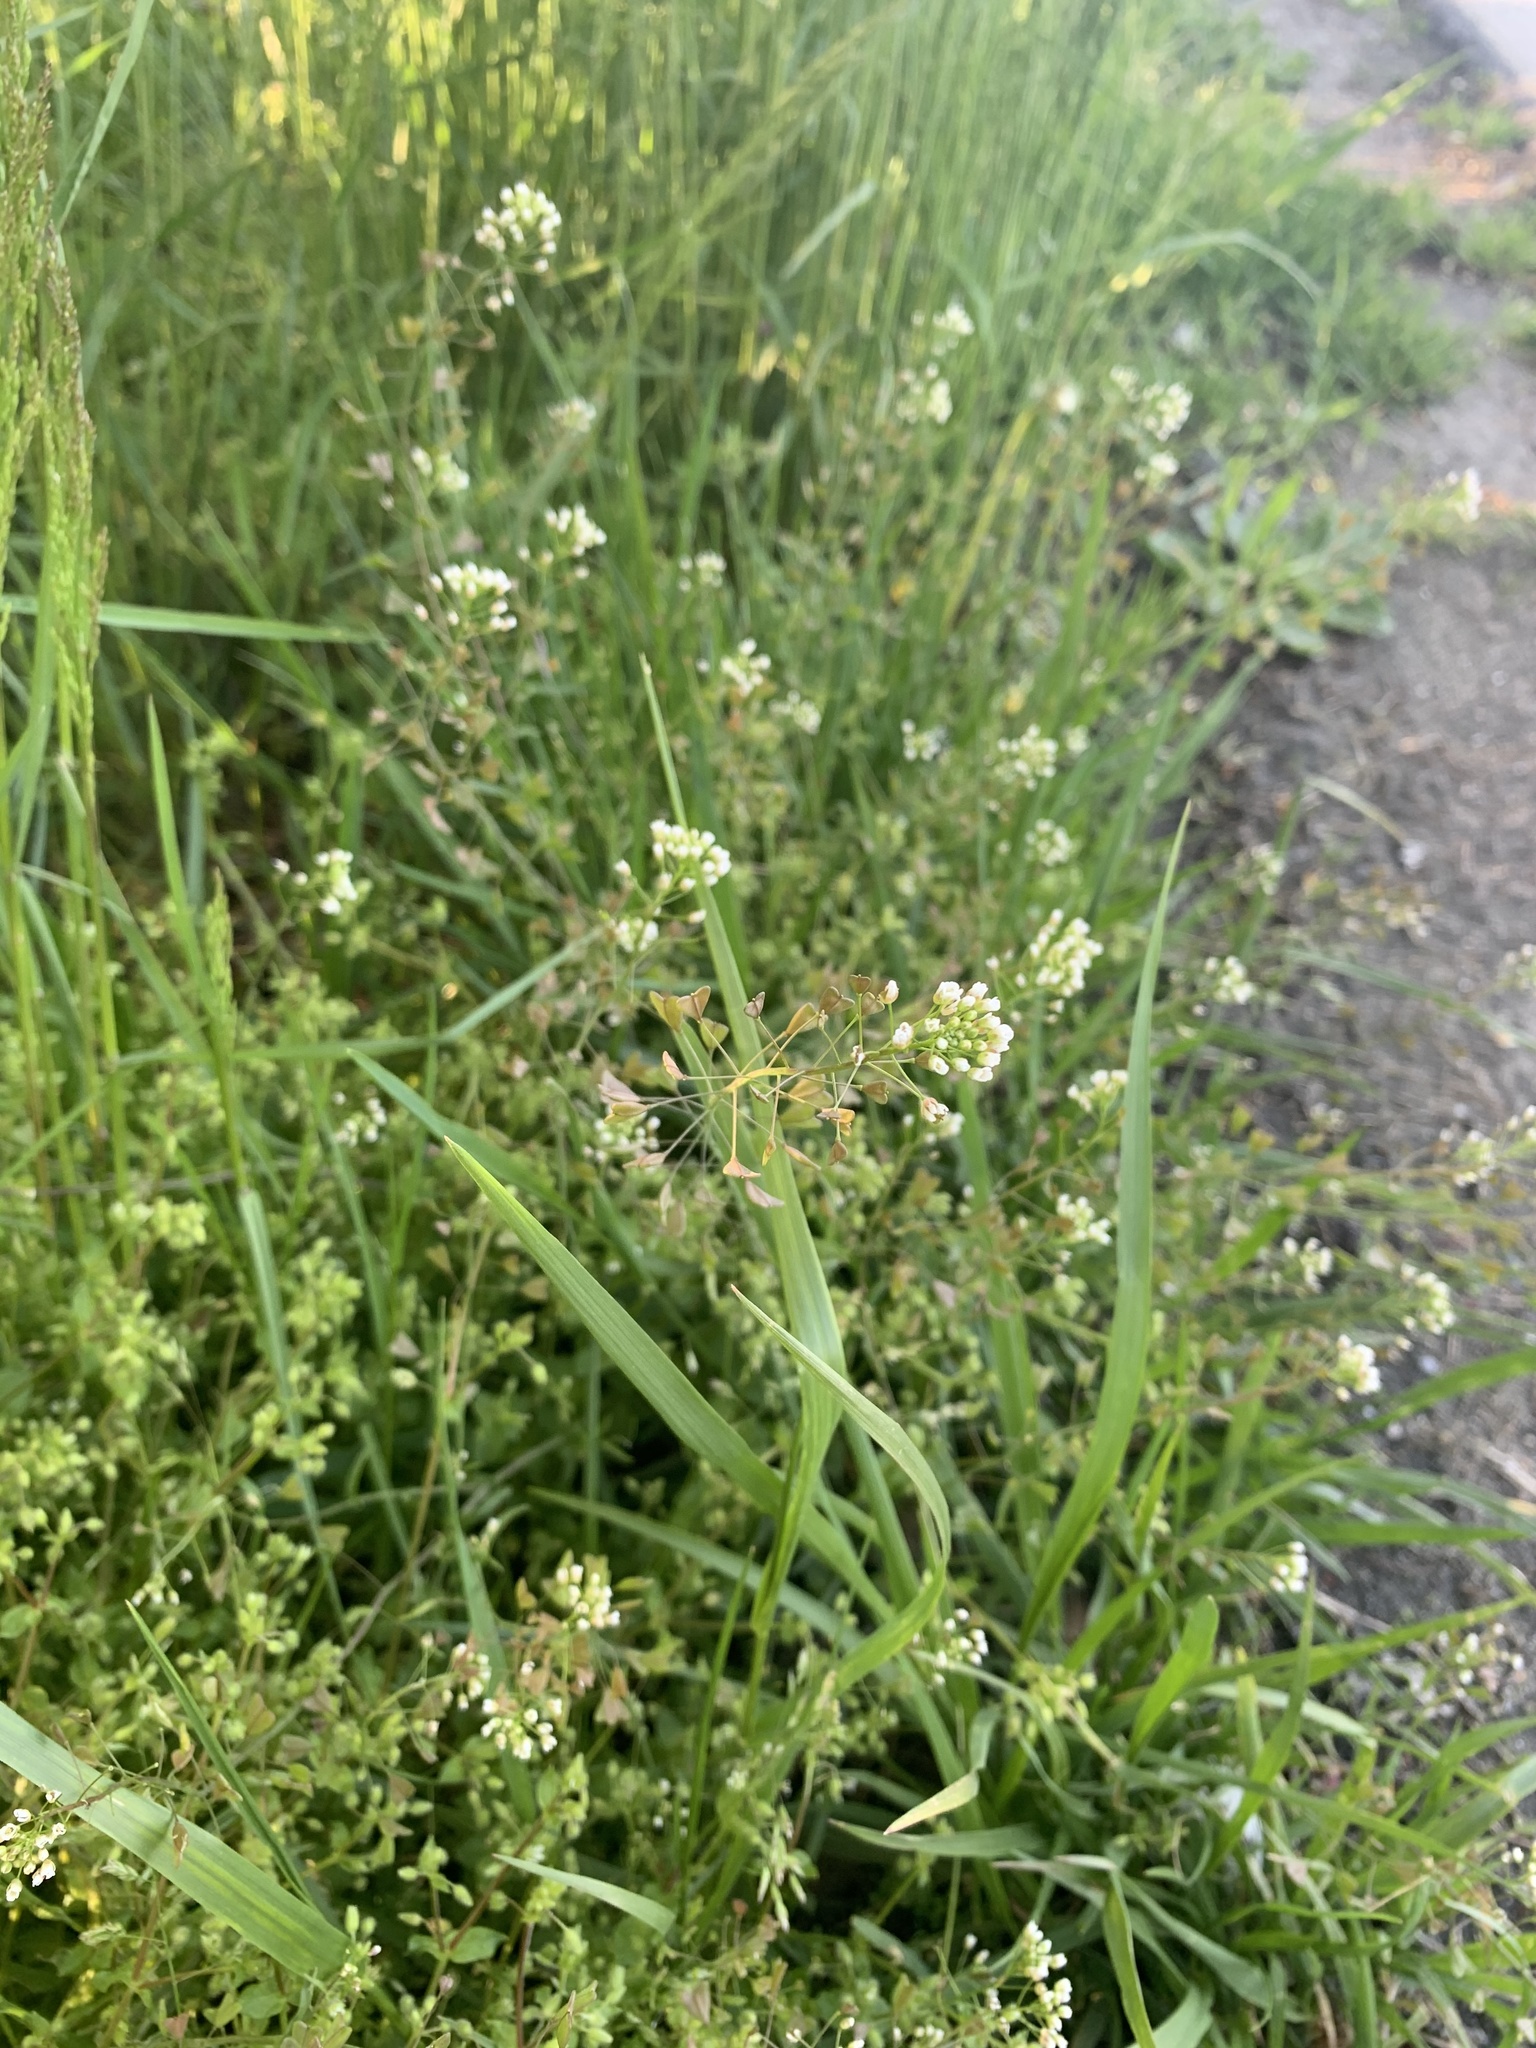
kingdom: Plantae
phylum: Tracheophyta
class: Magnoliopsida
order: Brassicales
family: Brassicaceae
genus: Capsella
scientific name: Capsella bursa-pastoris
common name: Shepherd's purse
